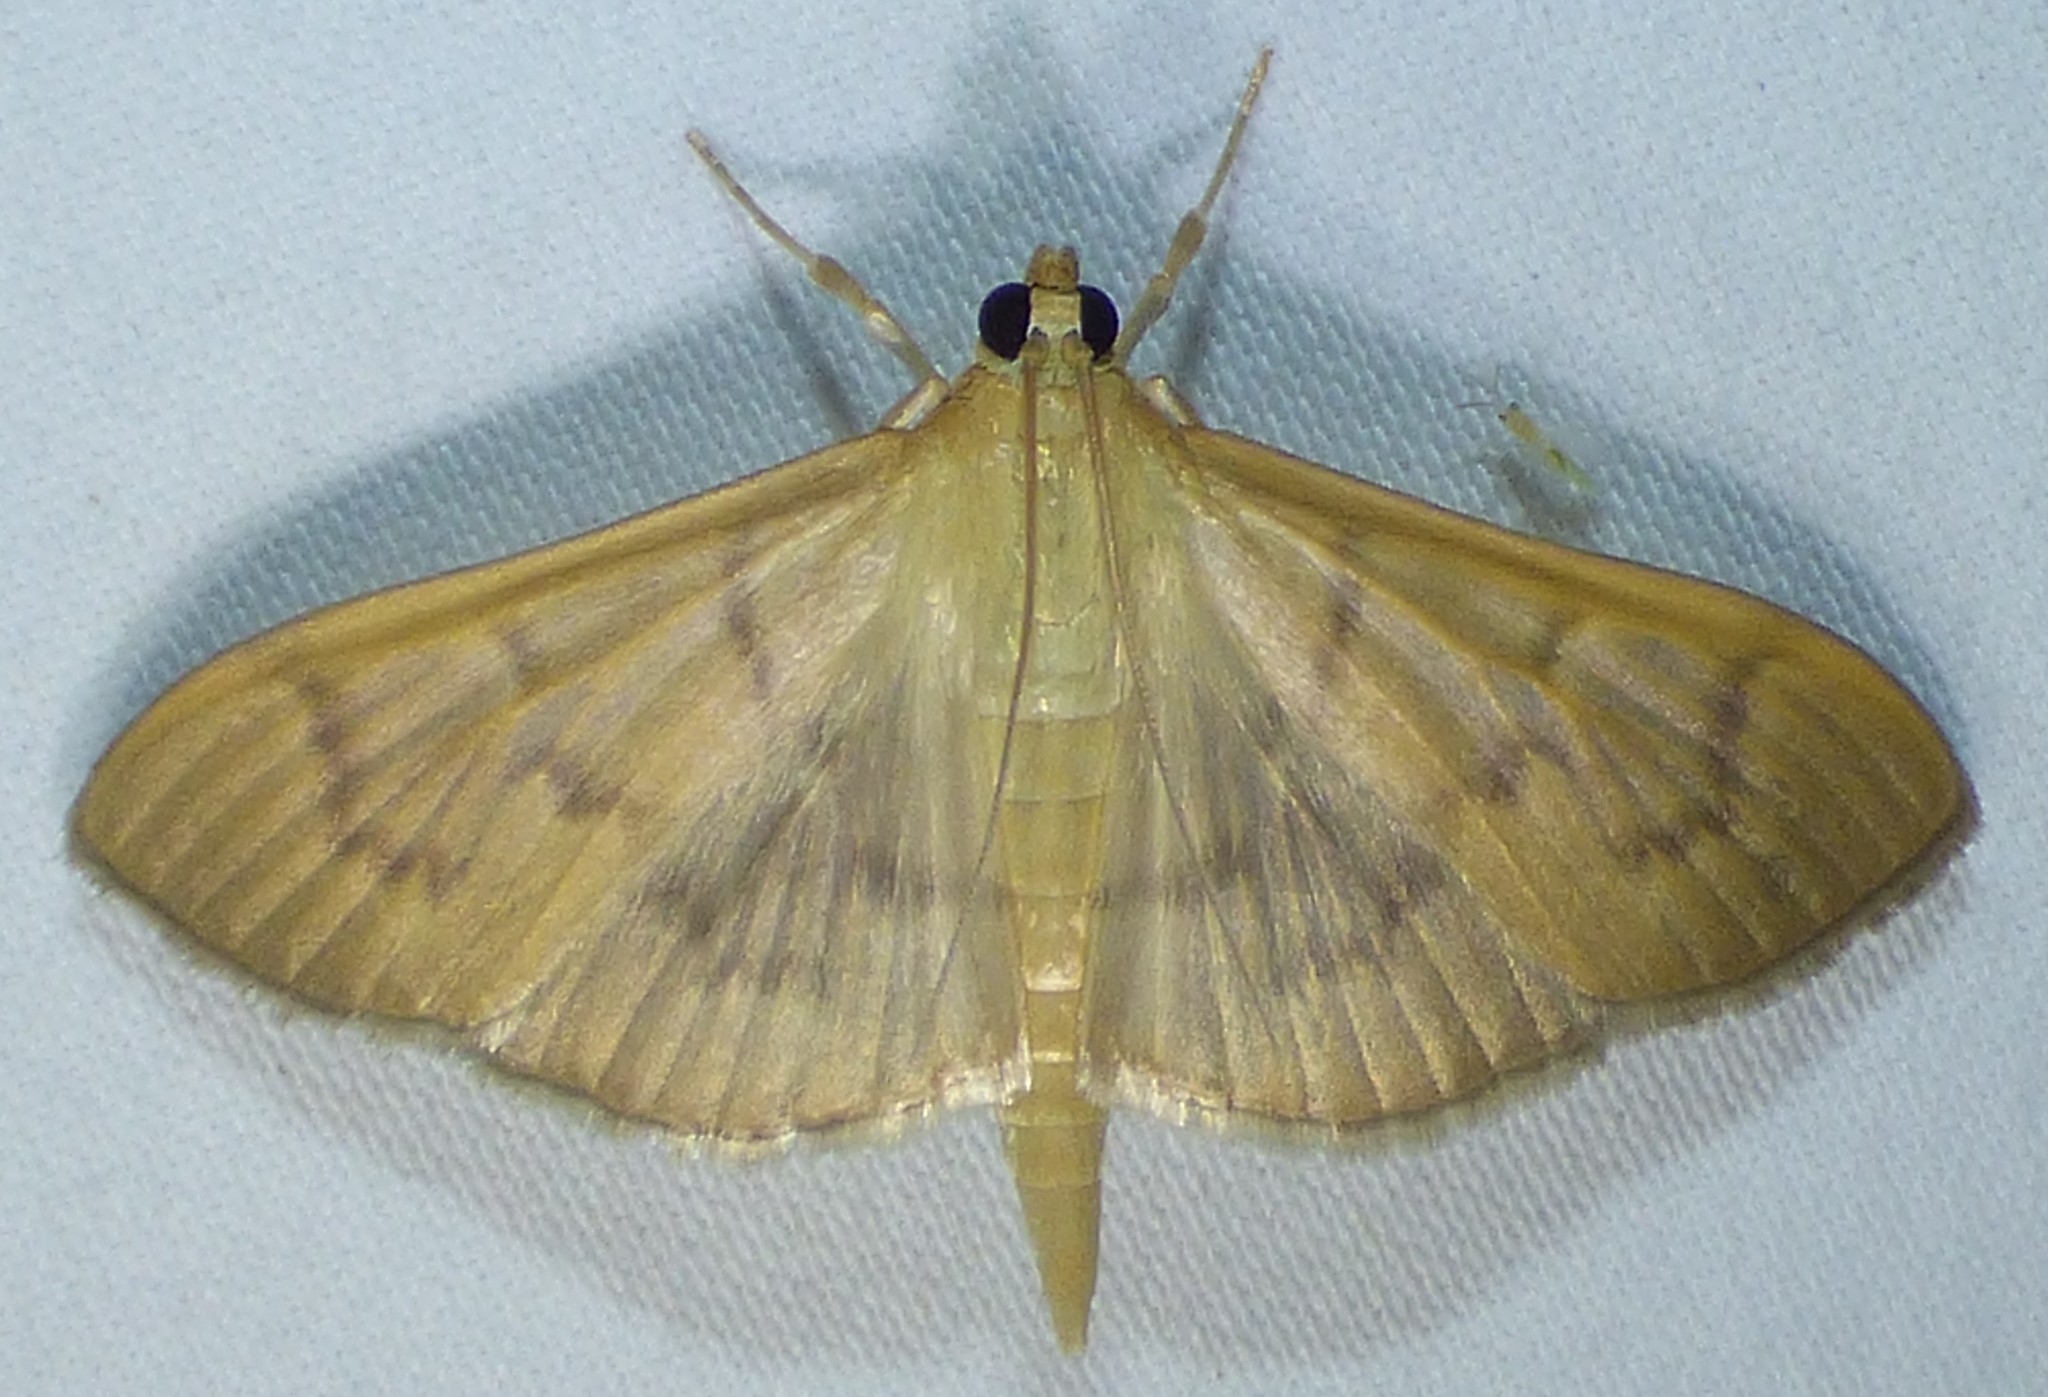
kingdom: Animalia
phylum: Arthropoda
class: Insecta
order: Lepidoptera
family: Crambidae
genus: Pleuroptya
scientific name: Pleuroptya silicalis
